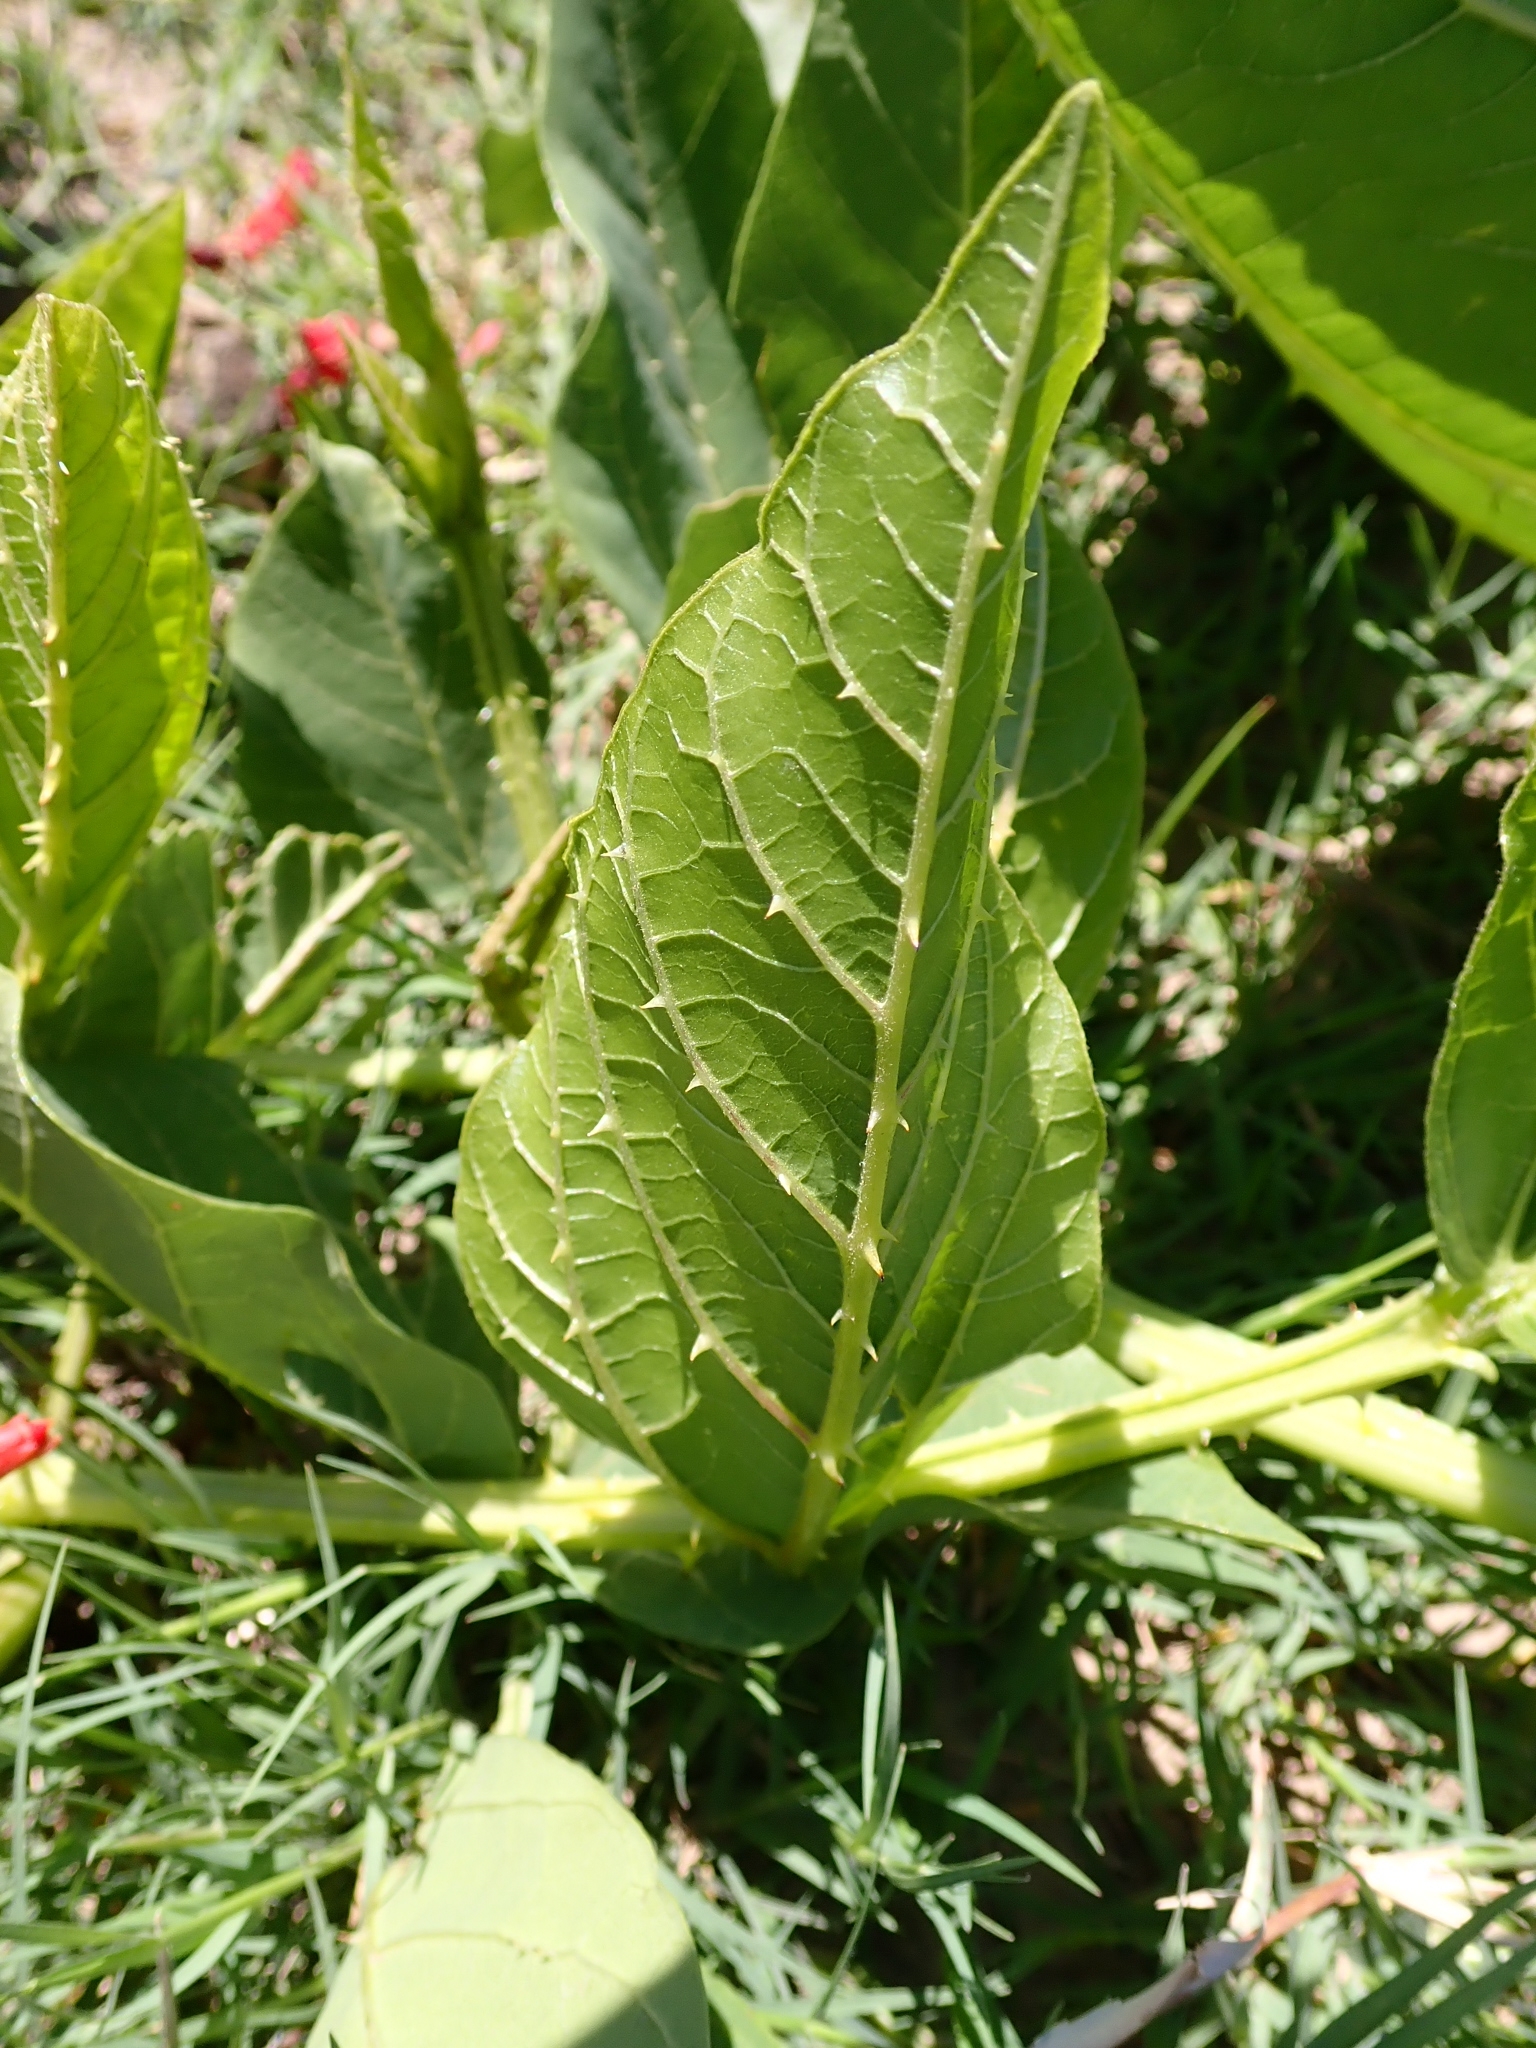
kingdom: Plantae
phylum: Tracheophyta
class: Magnoliopsida
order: Fabales
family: Fabaceae
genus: Erythrina
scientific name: Erythrina zeyheri
